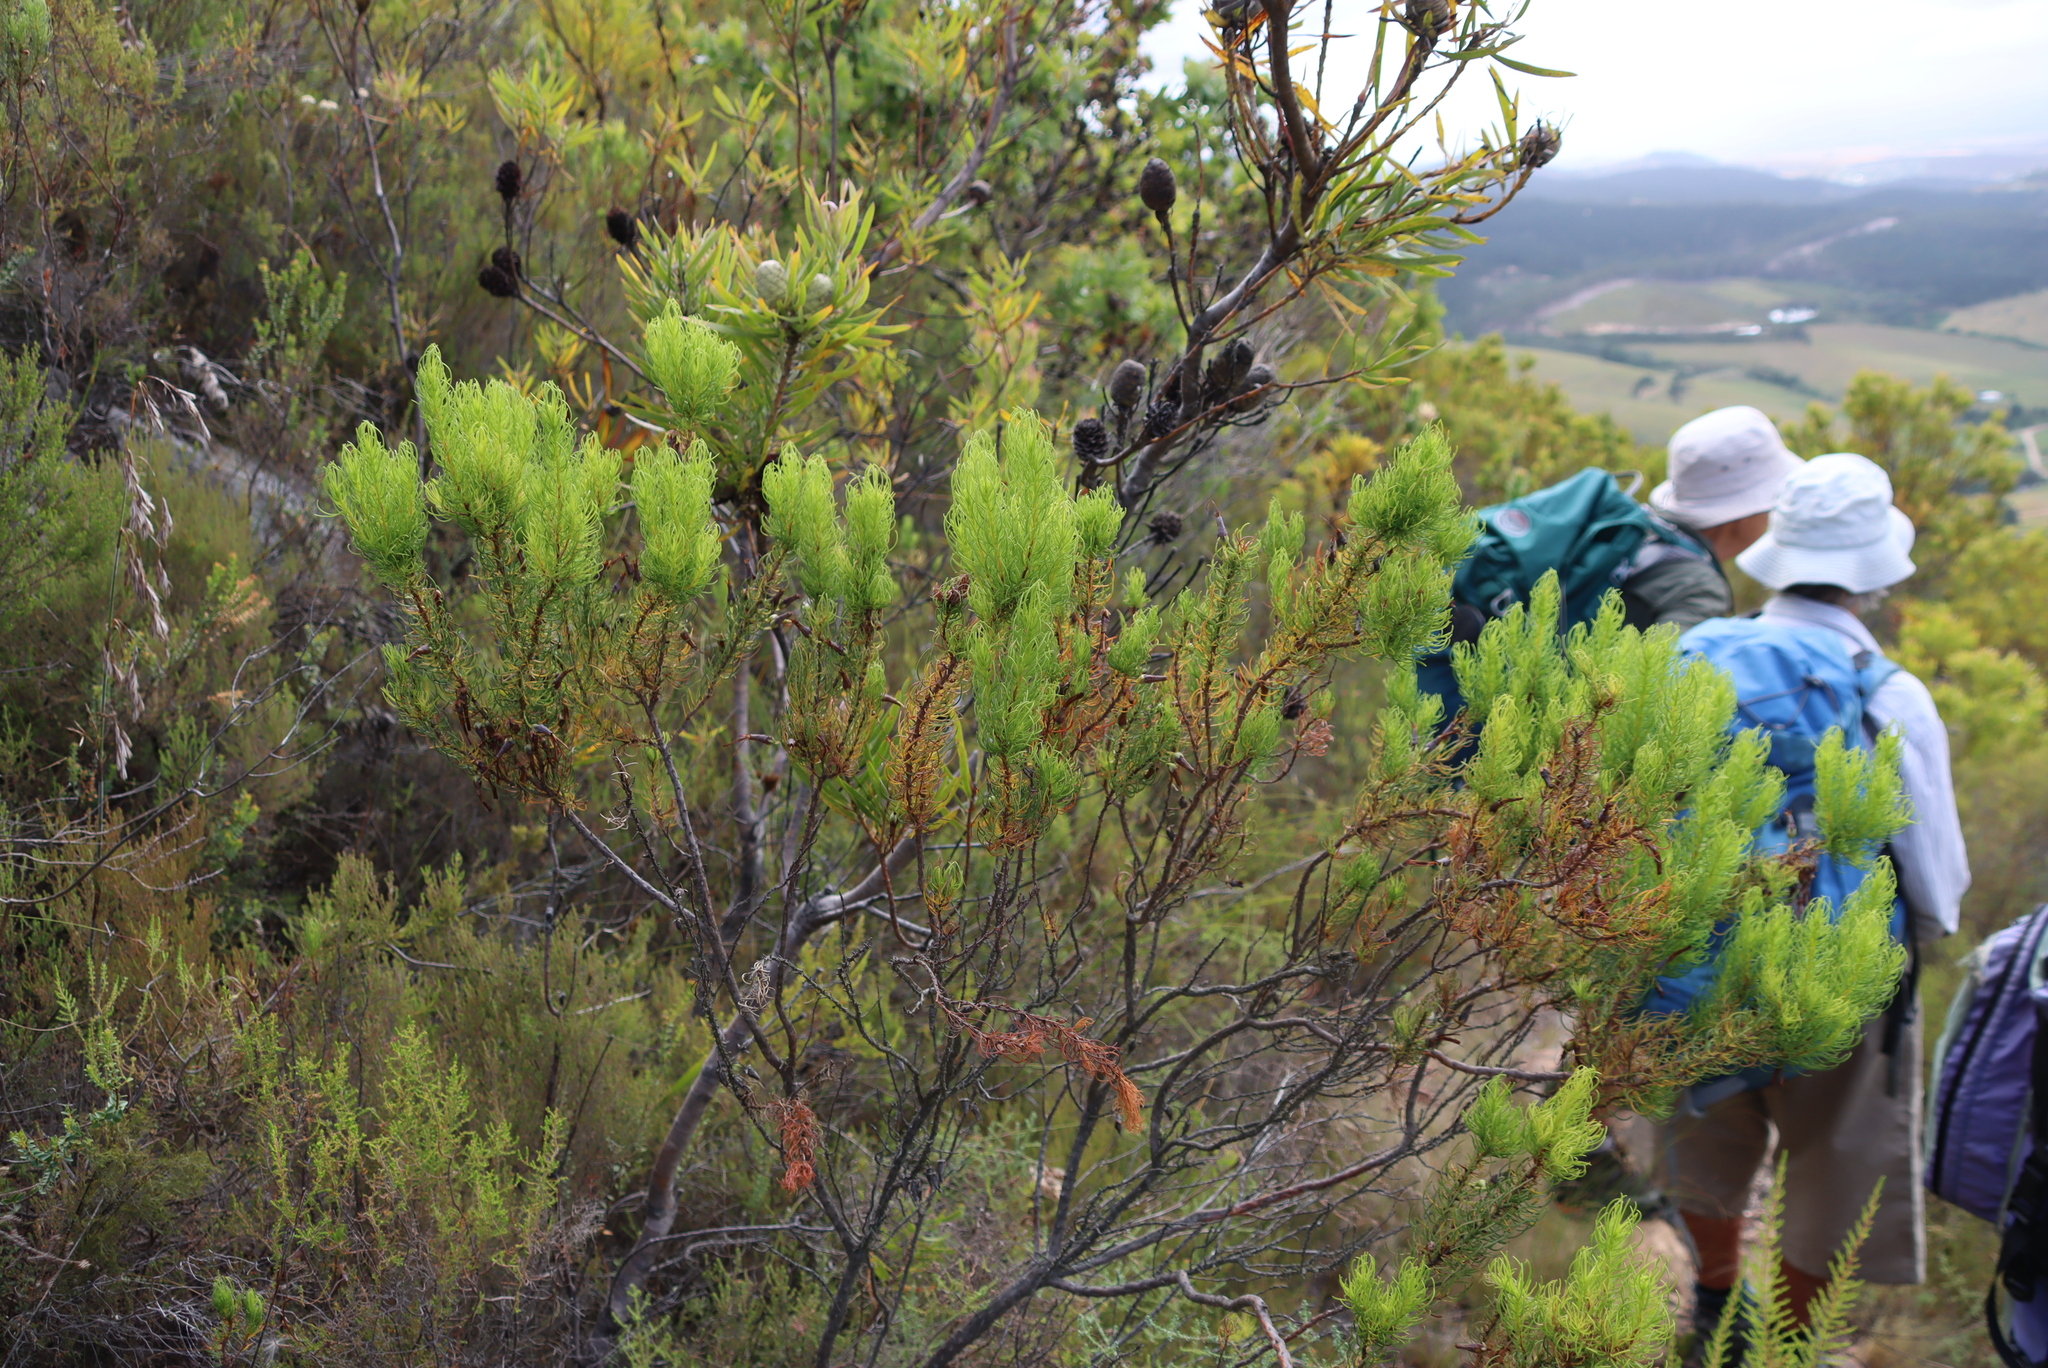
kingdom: Plantae
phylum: Tracheophyta
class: Magnoliopsida
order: Ericales
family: Ericaceae
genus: Erica
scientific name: Erica plukenetii
